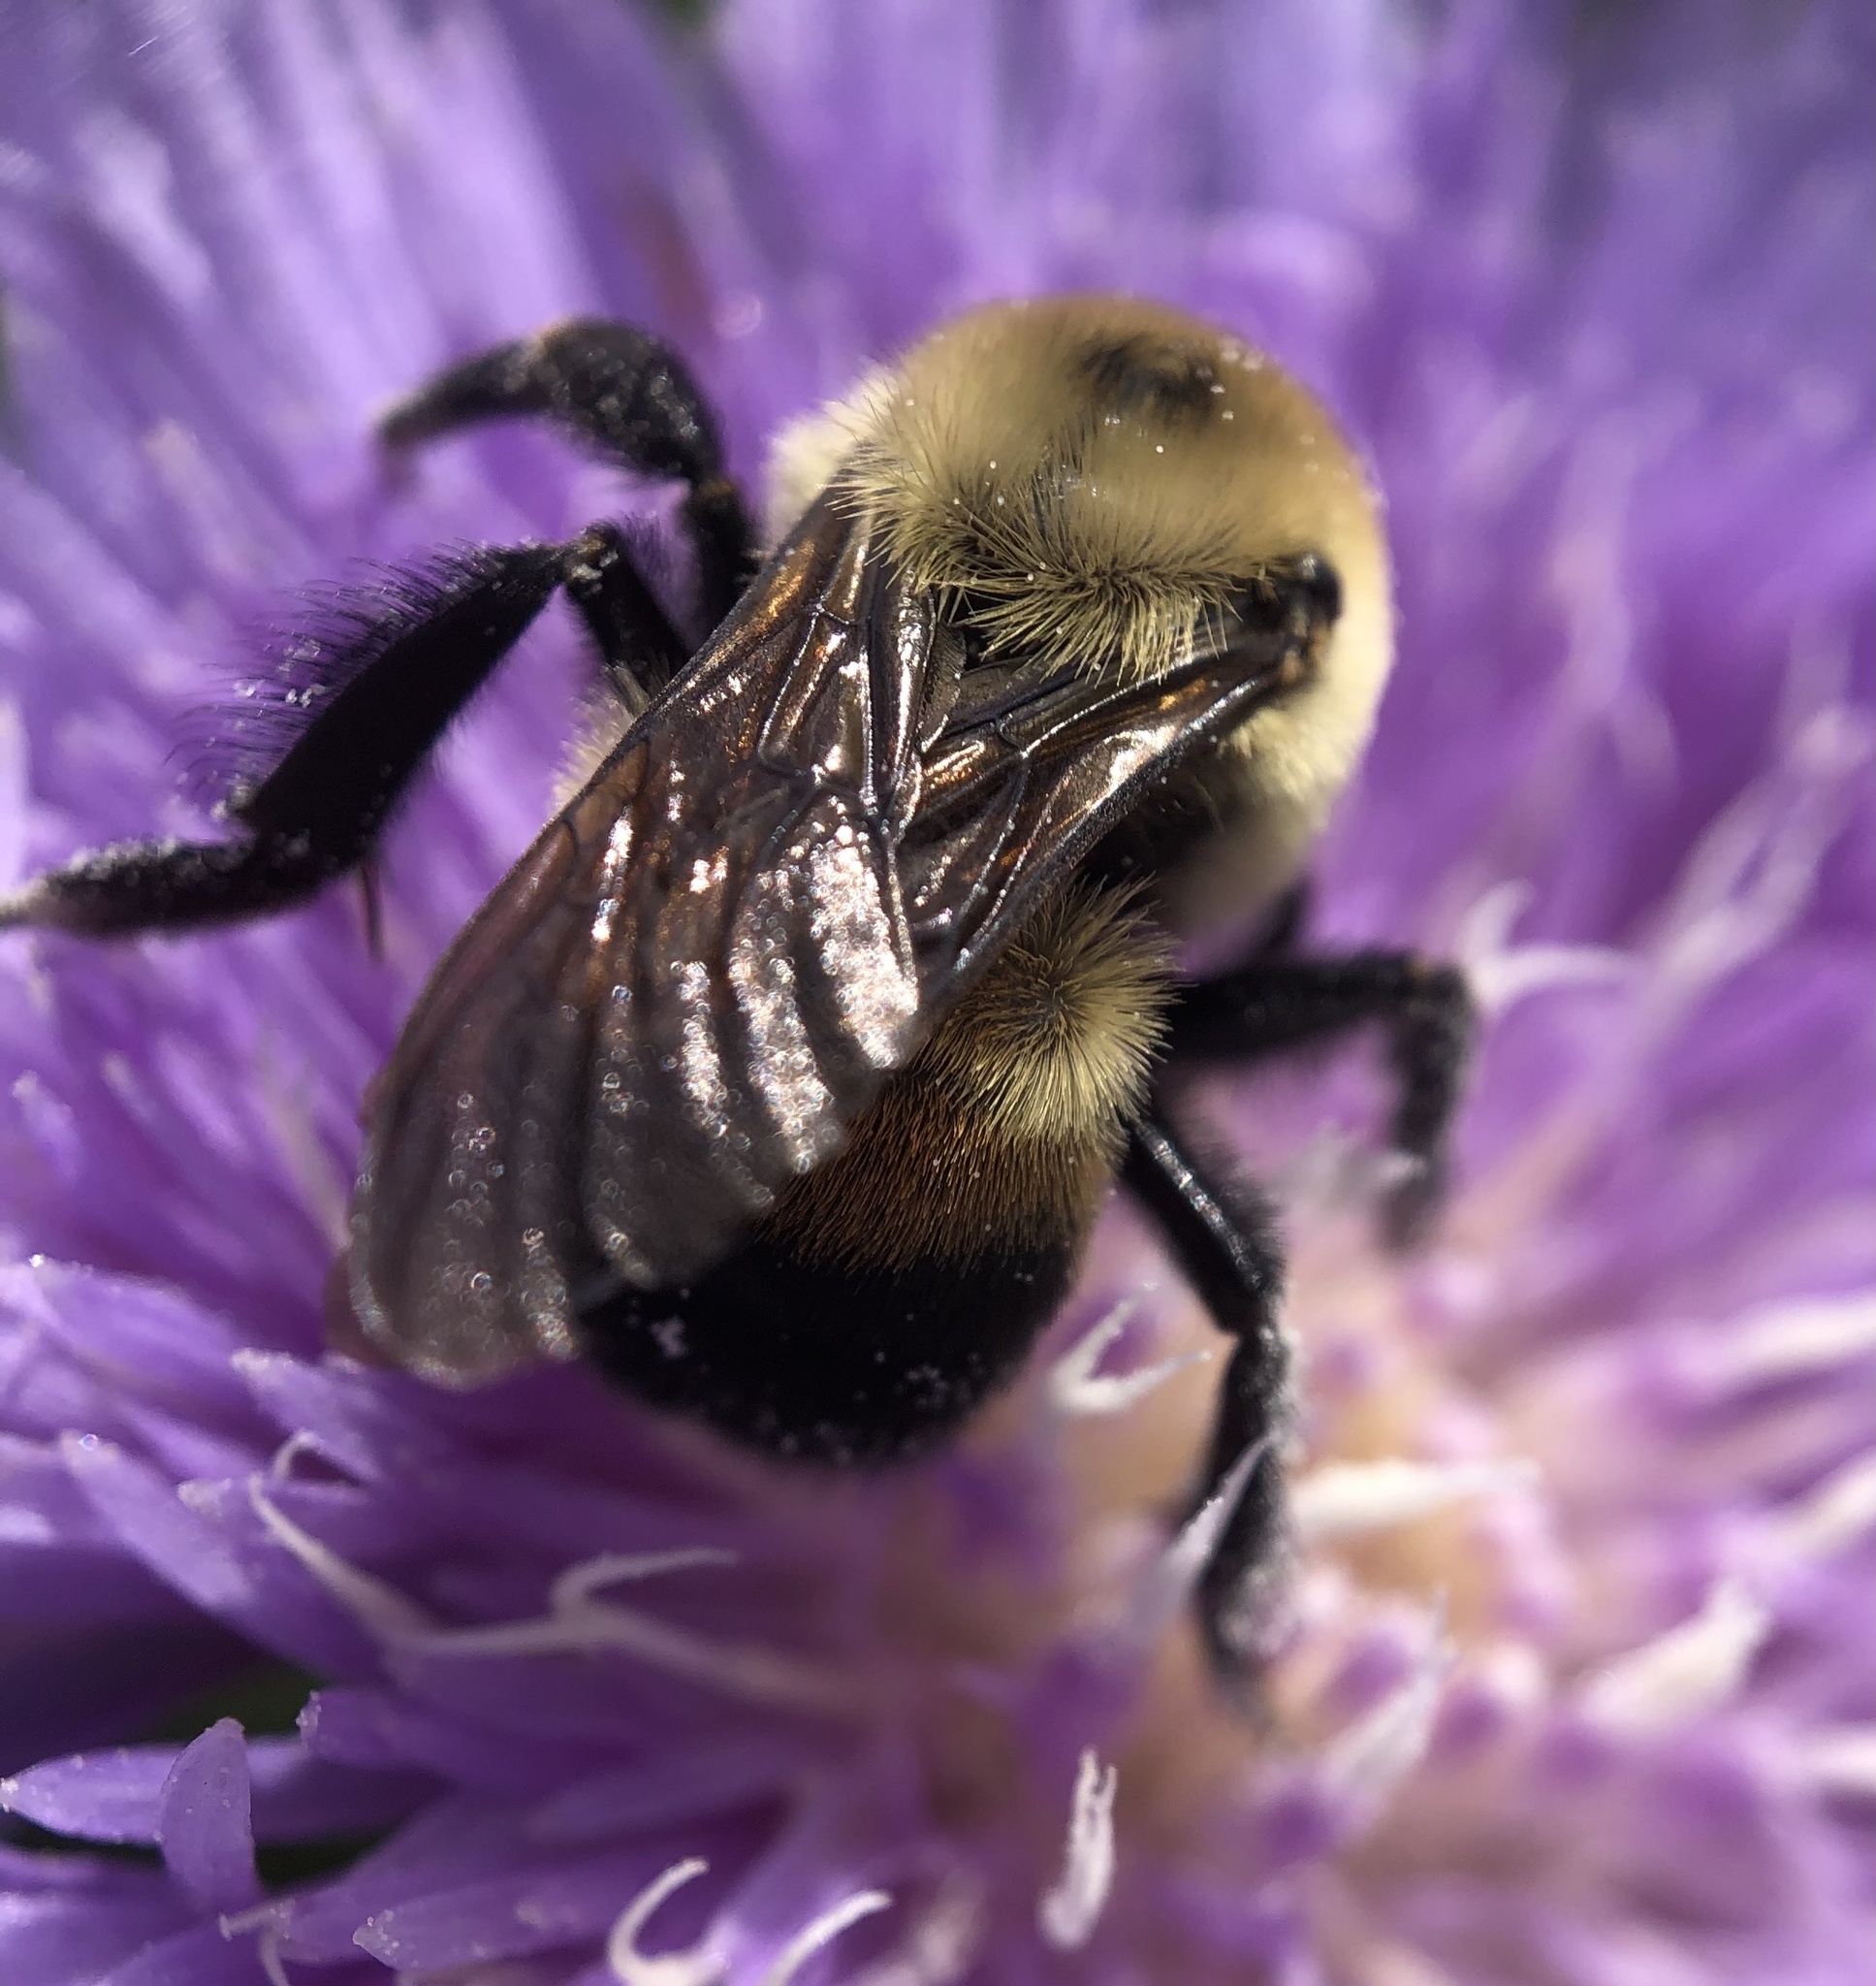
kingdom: Animalia
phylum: Arthropoda
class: Insecta
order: Hymenoptera
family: Apidae
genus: Bombus
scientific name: Bombus griseocollis
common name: Brown-belted bumble bee
